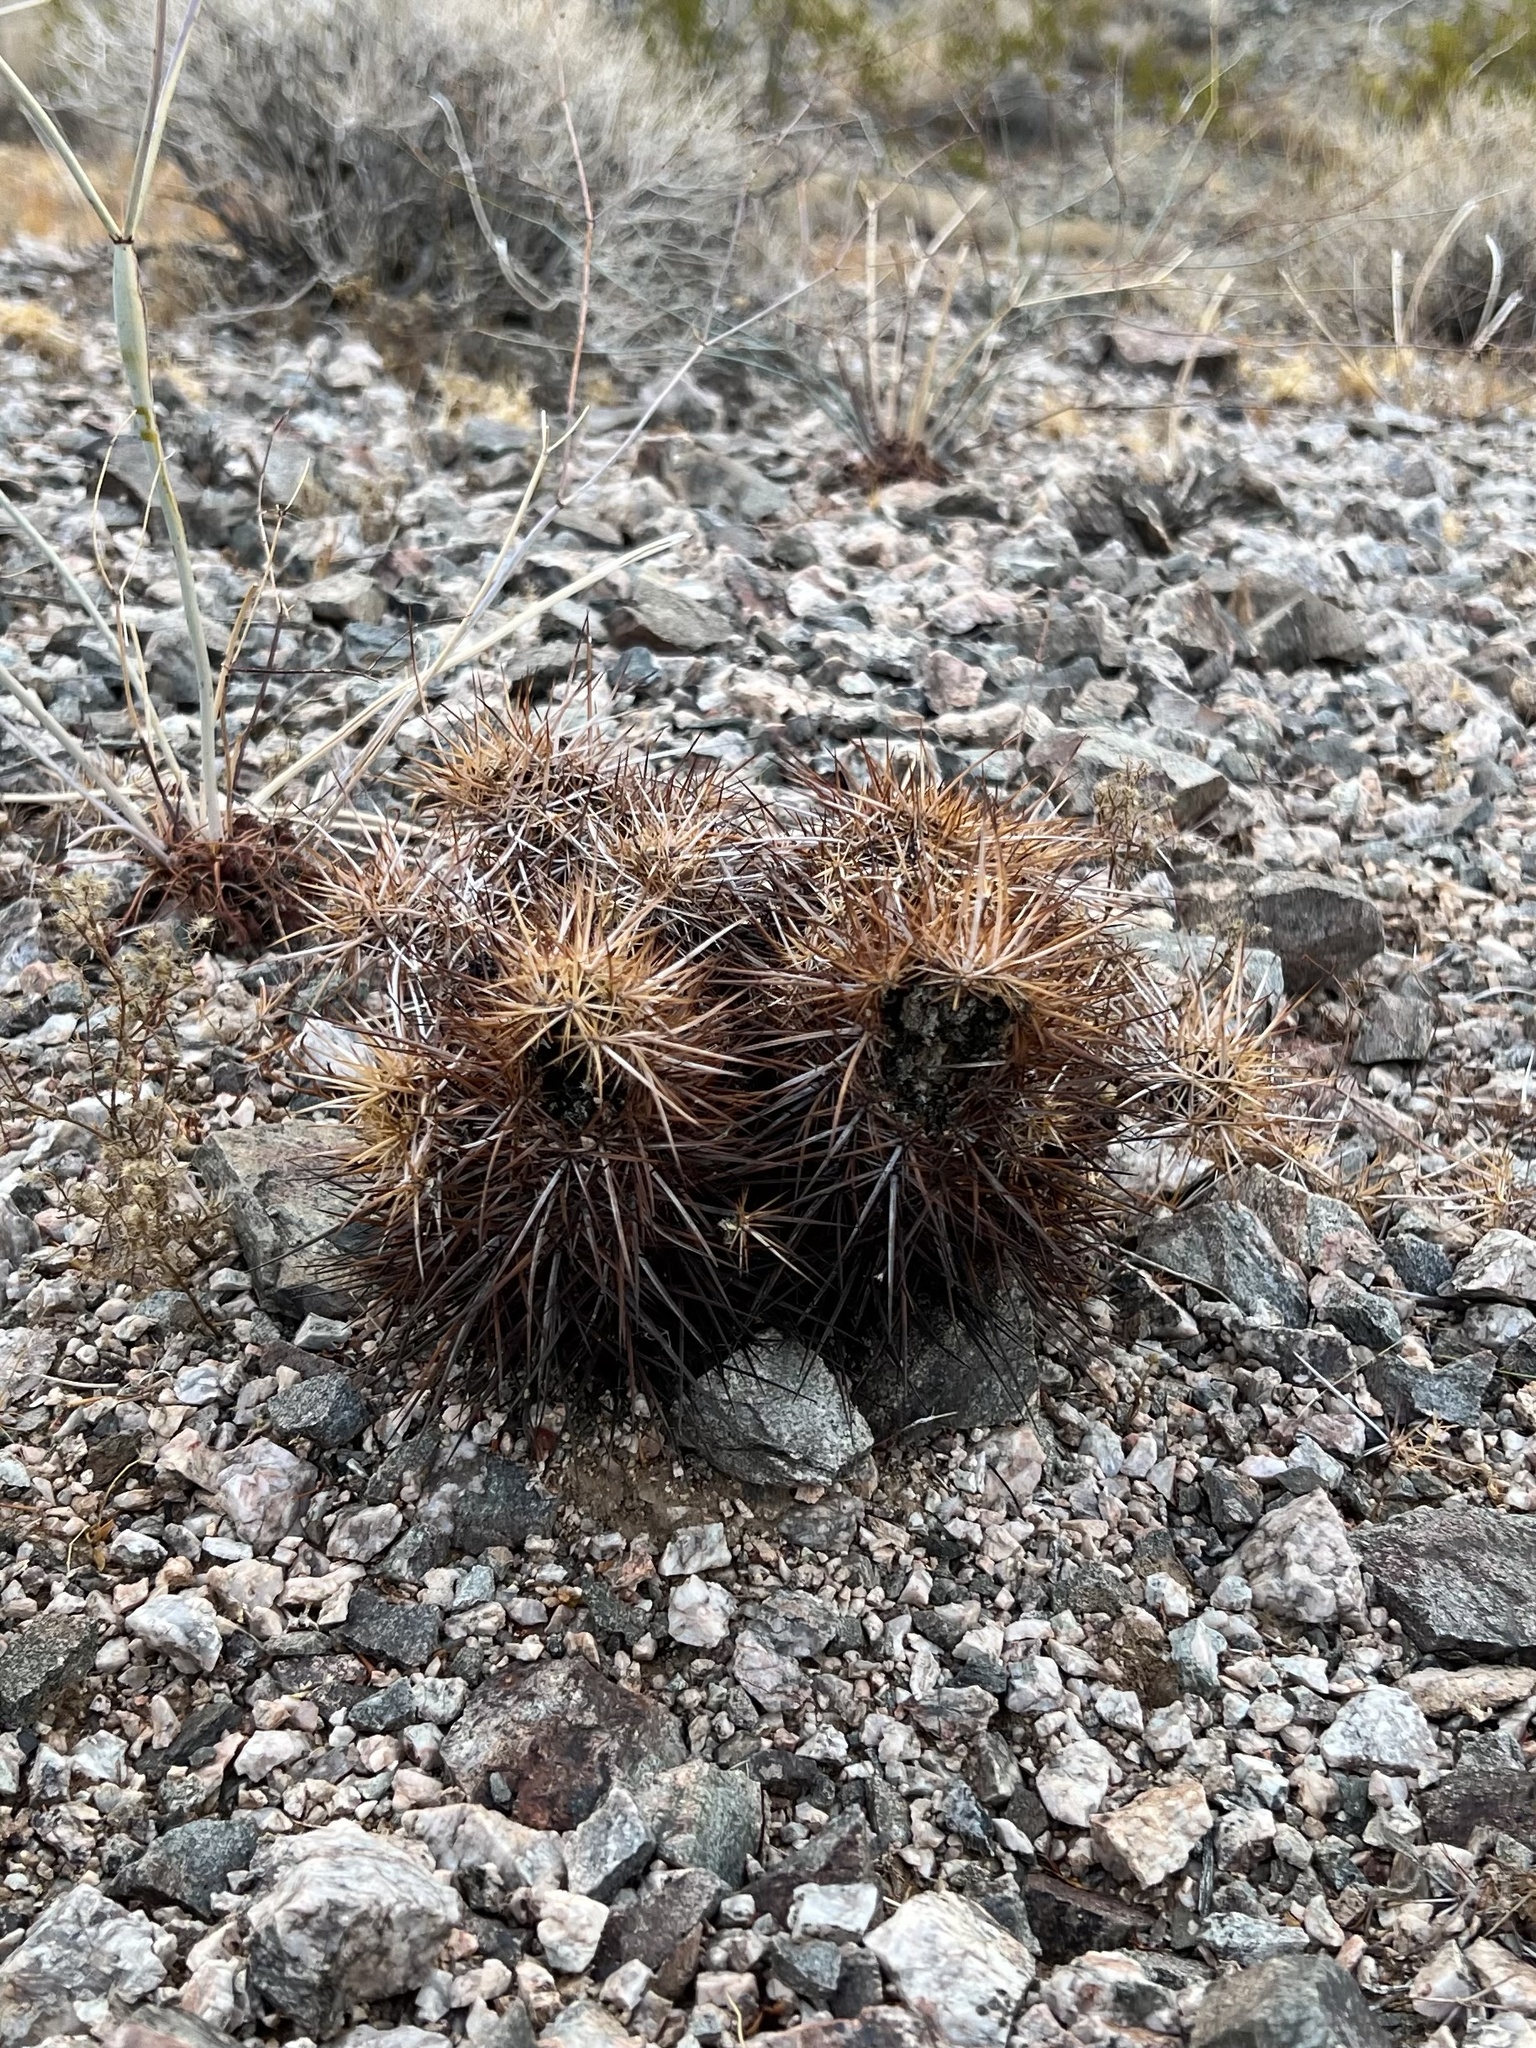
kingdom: Plantae
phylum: Tracheophyta
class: Magnoliopsida
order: Caryophyllales
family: Cactaceae
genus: Echinocereus
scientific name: Echinocereus engelmannii
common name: Engelmann's hedgehog cactus
